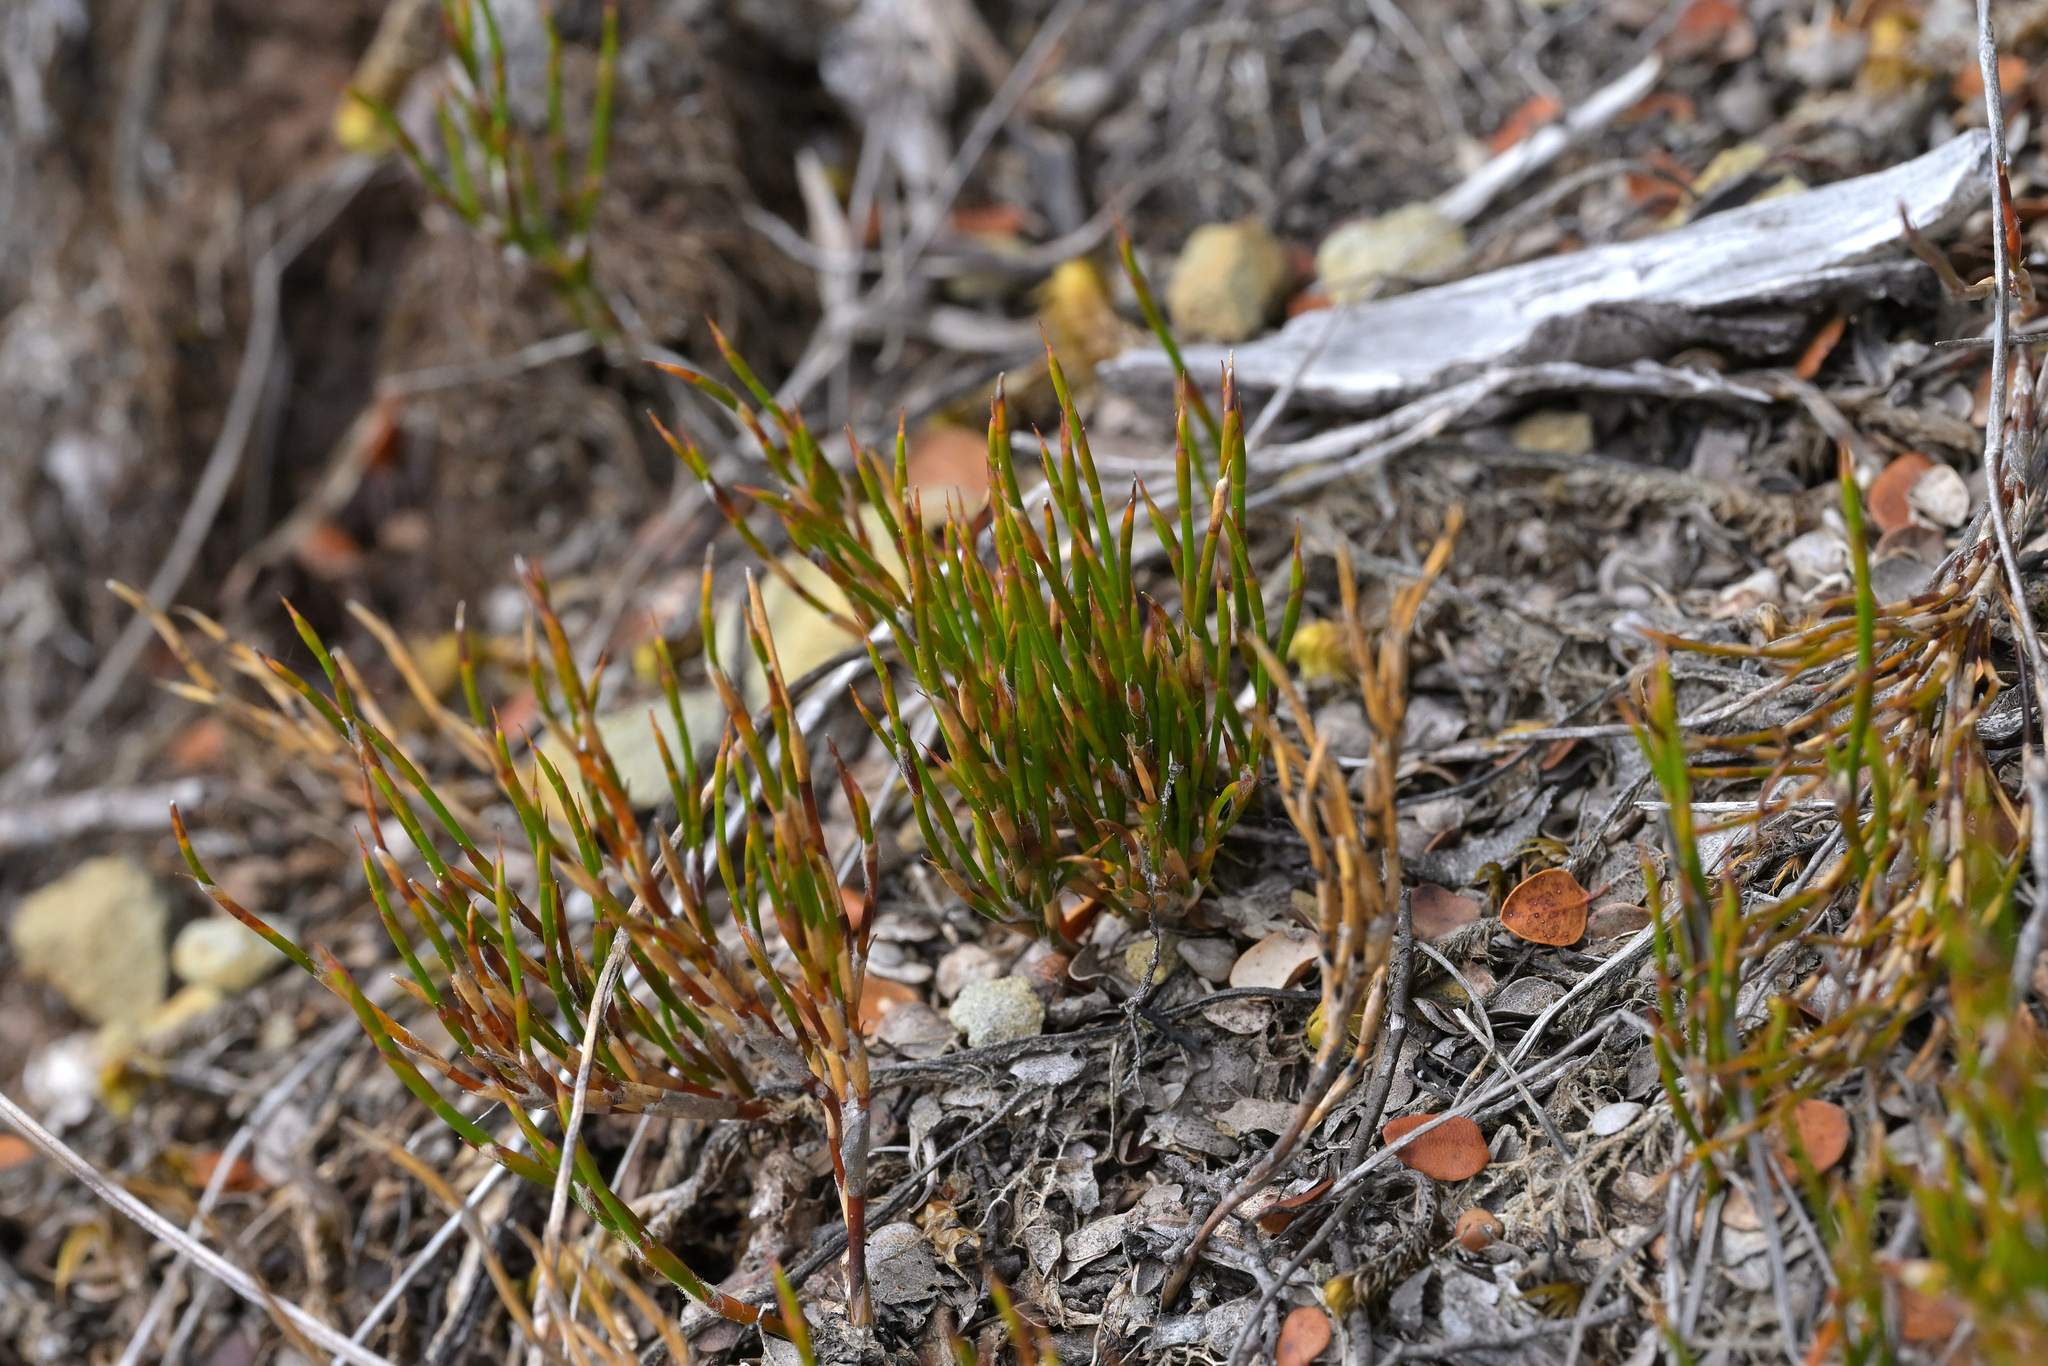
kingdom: Plantae
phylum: Tracheophyta
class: Liliopsida
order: Poales
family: Restionaceae
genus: Empodisma
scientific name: Empodisma minus
